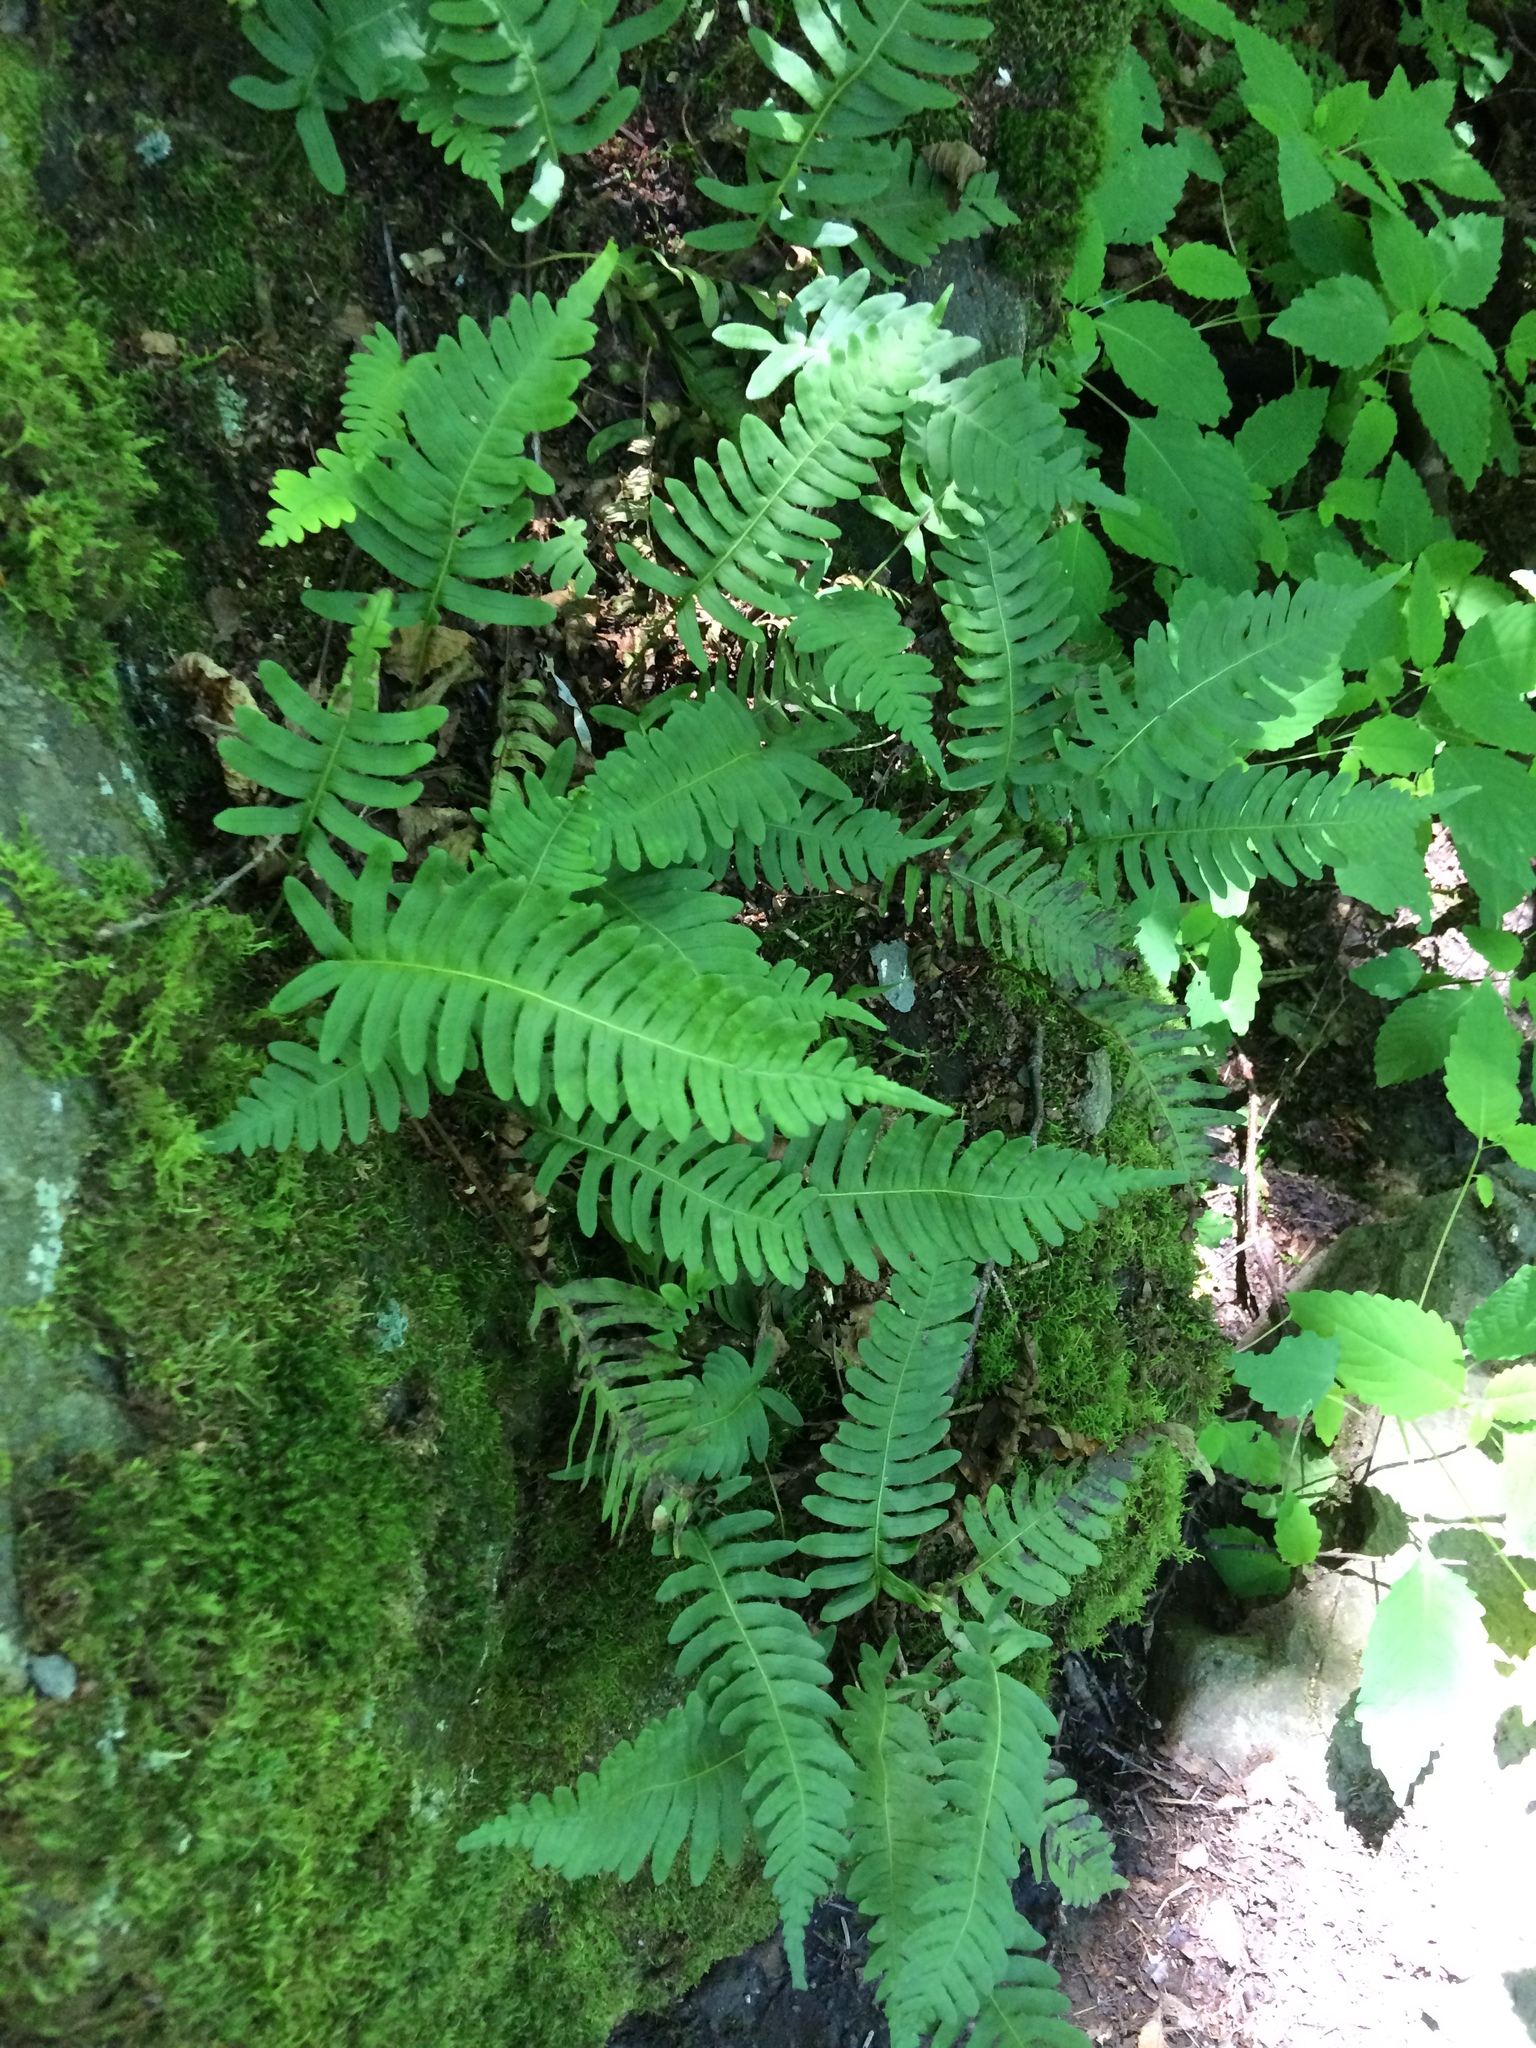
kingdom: Plantae
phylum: Tracheophyta
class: Polypodiopsida
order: Polypodiales
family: Polypodiaceae
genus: Polypodium
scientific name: Polypodium virginianum
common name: American wall fern
